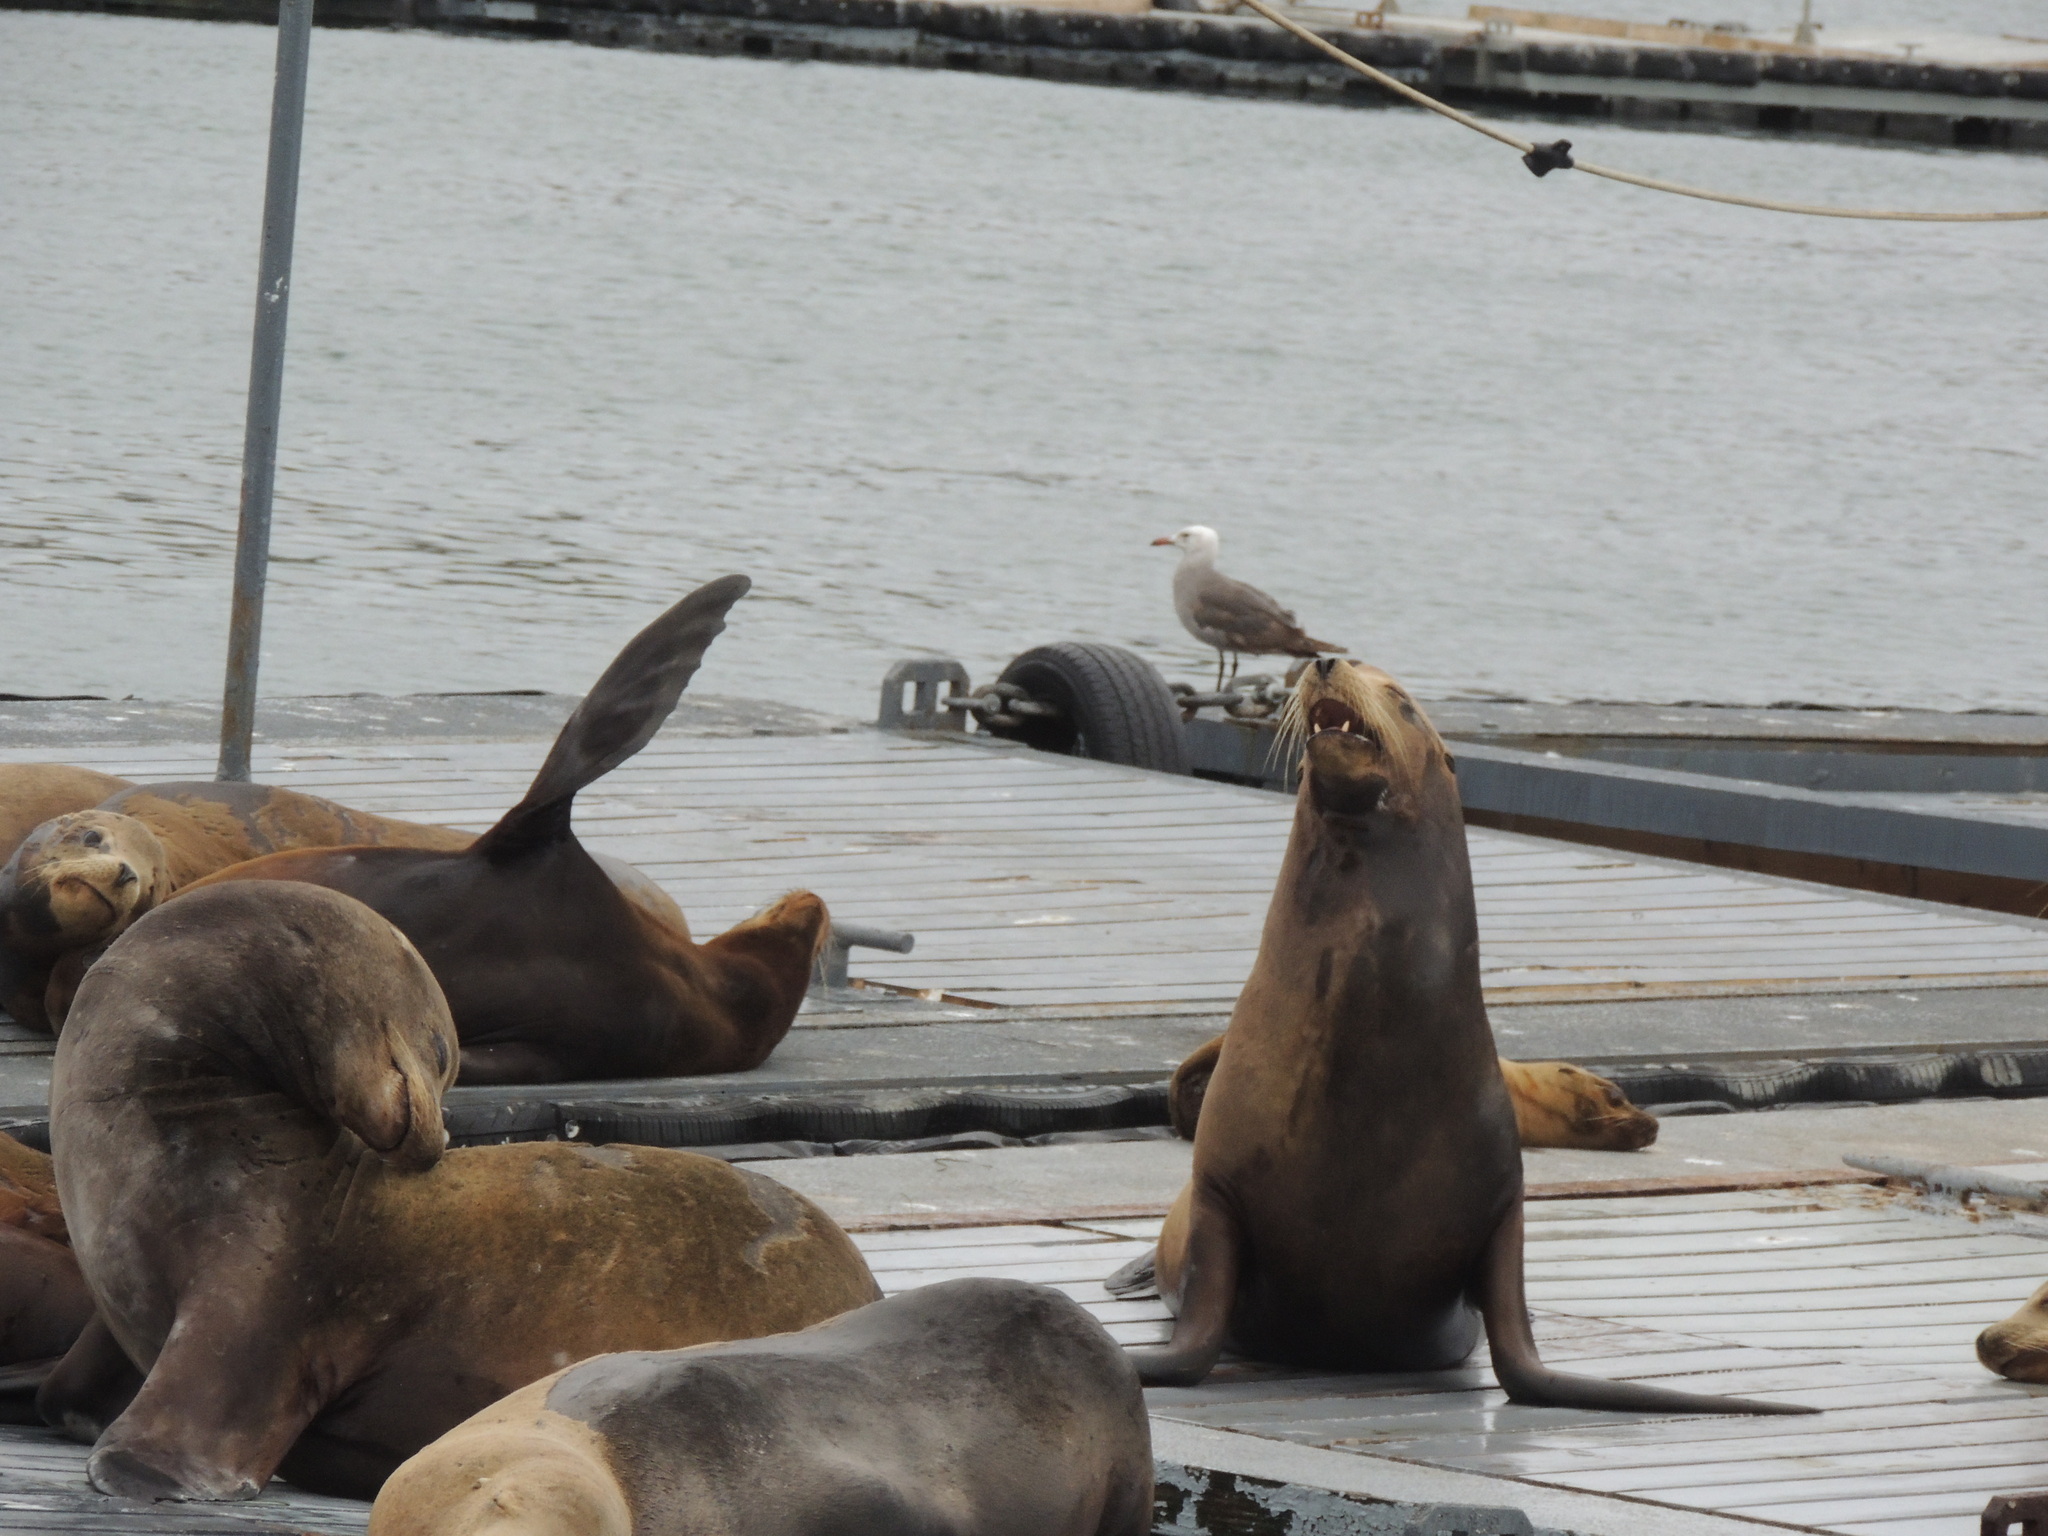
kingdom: Animalia
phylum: Chordata
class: Mammalia
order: Carnivora
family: Otariidae
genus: Zalophus
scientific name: Zalophus californianus
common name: California sea lion
